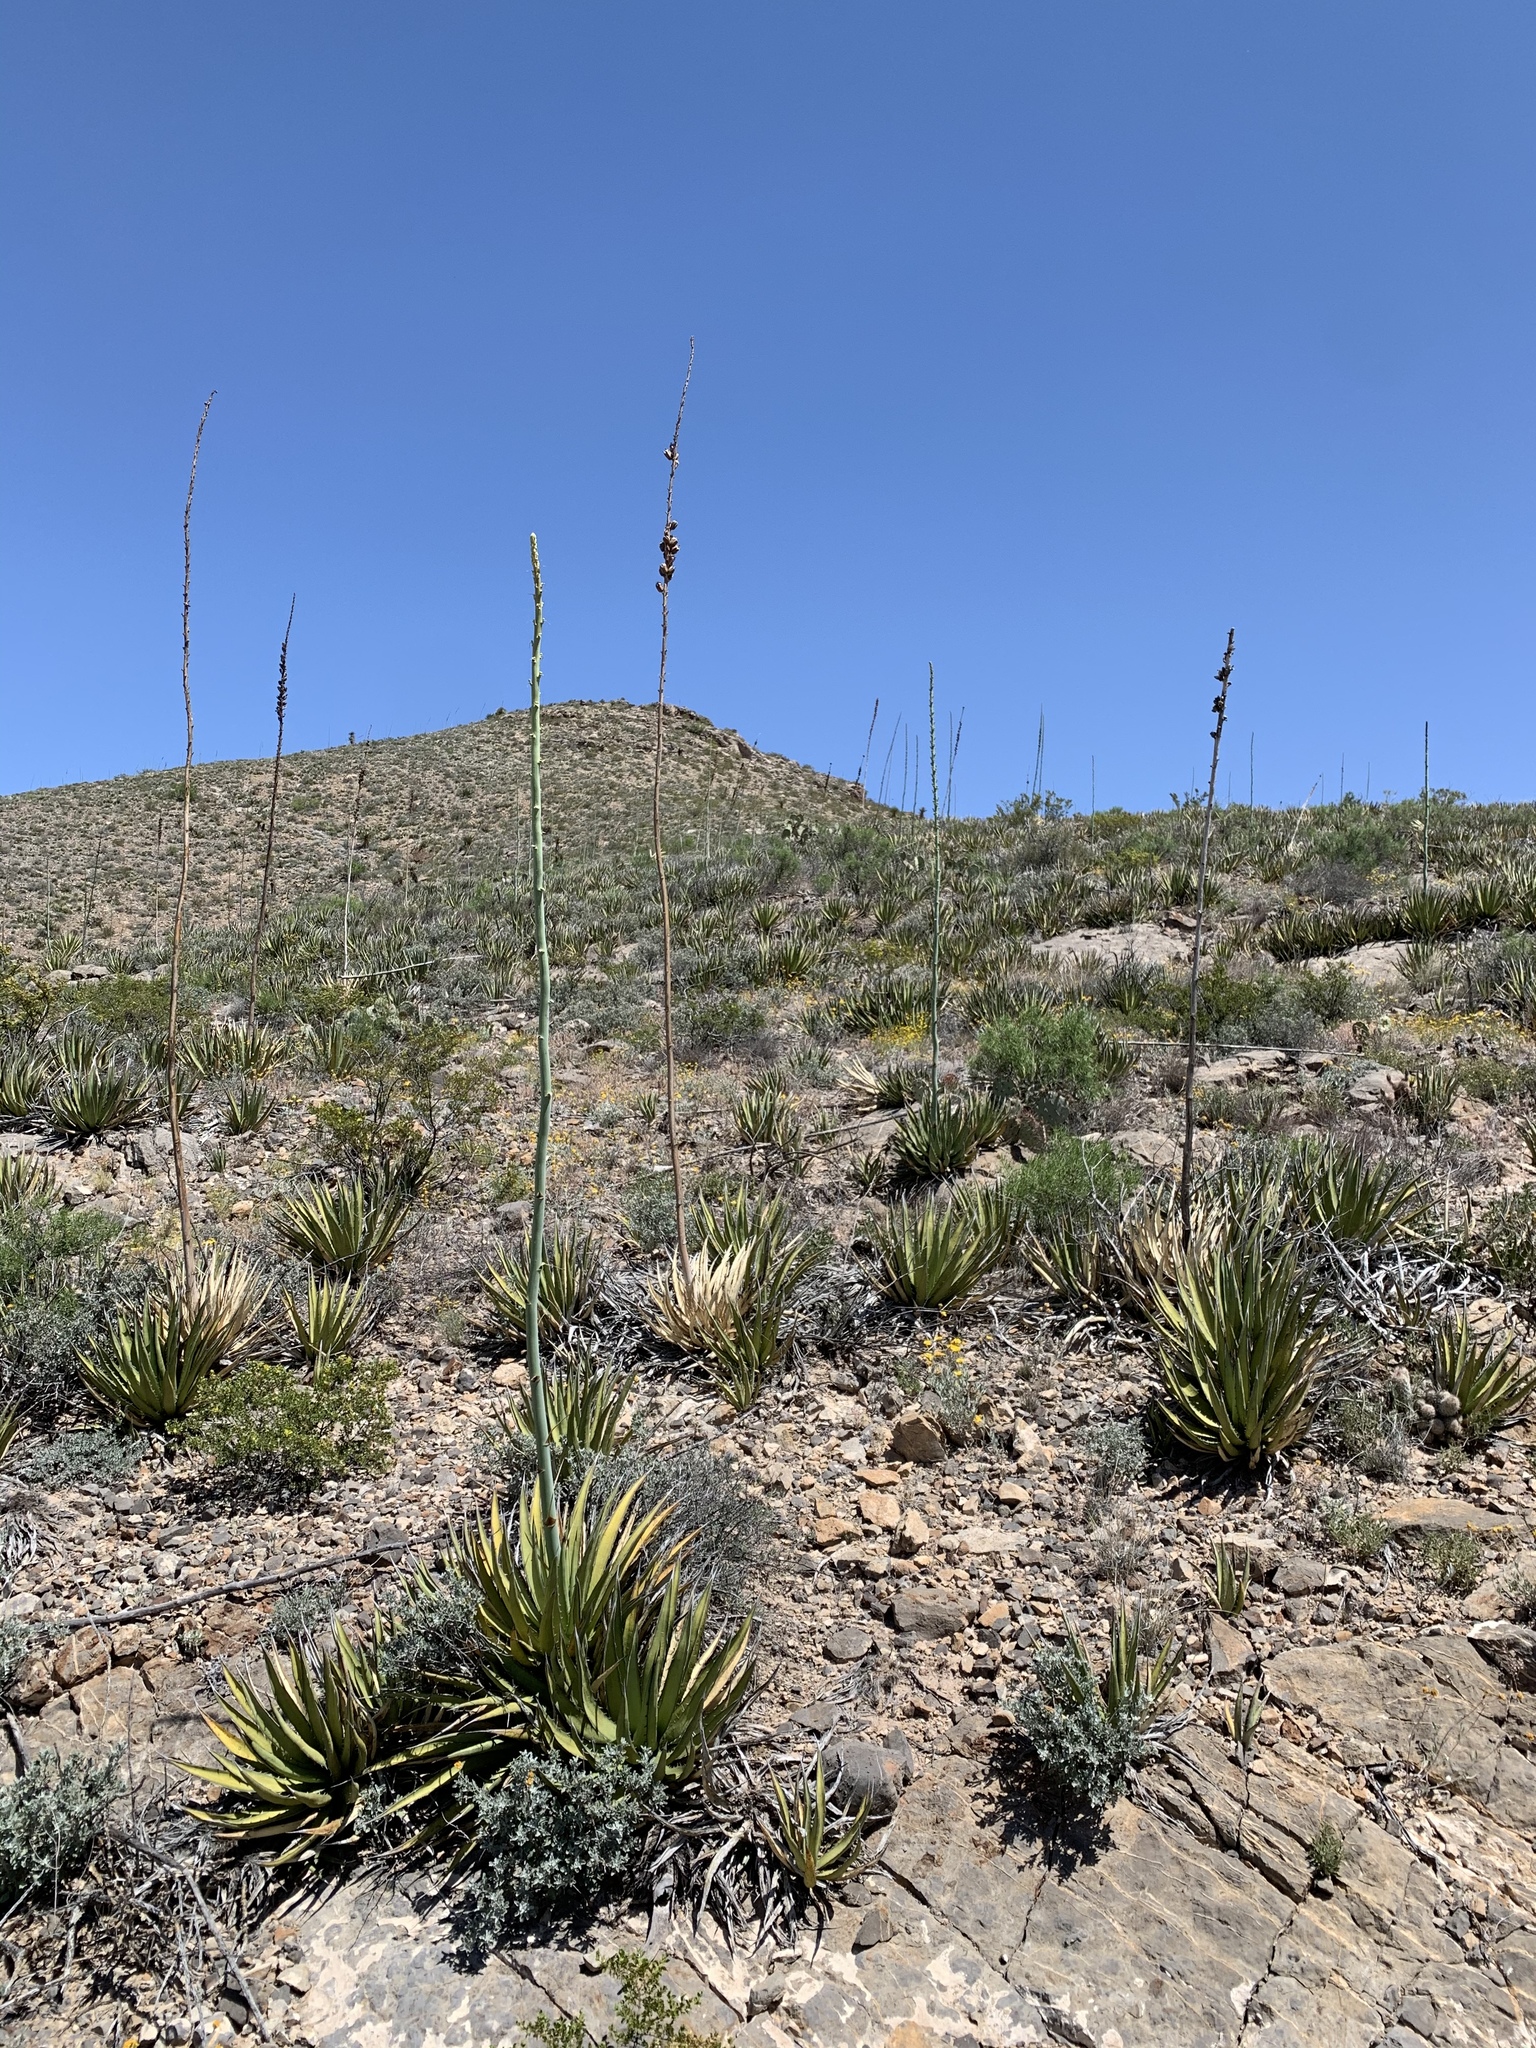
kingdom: Plantae
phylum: Tracheophyta
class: Liliopsida
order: Asparagales
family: Asparagaceae
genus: Agave
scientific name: Agave lechuguilla
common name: Lecheguilla agave
